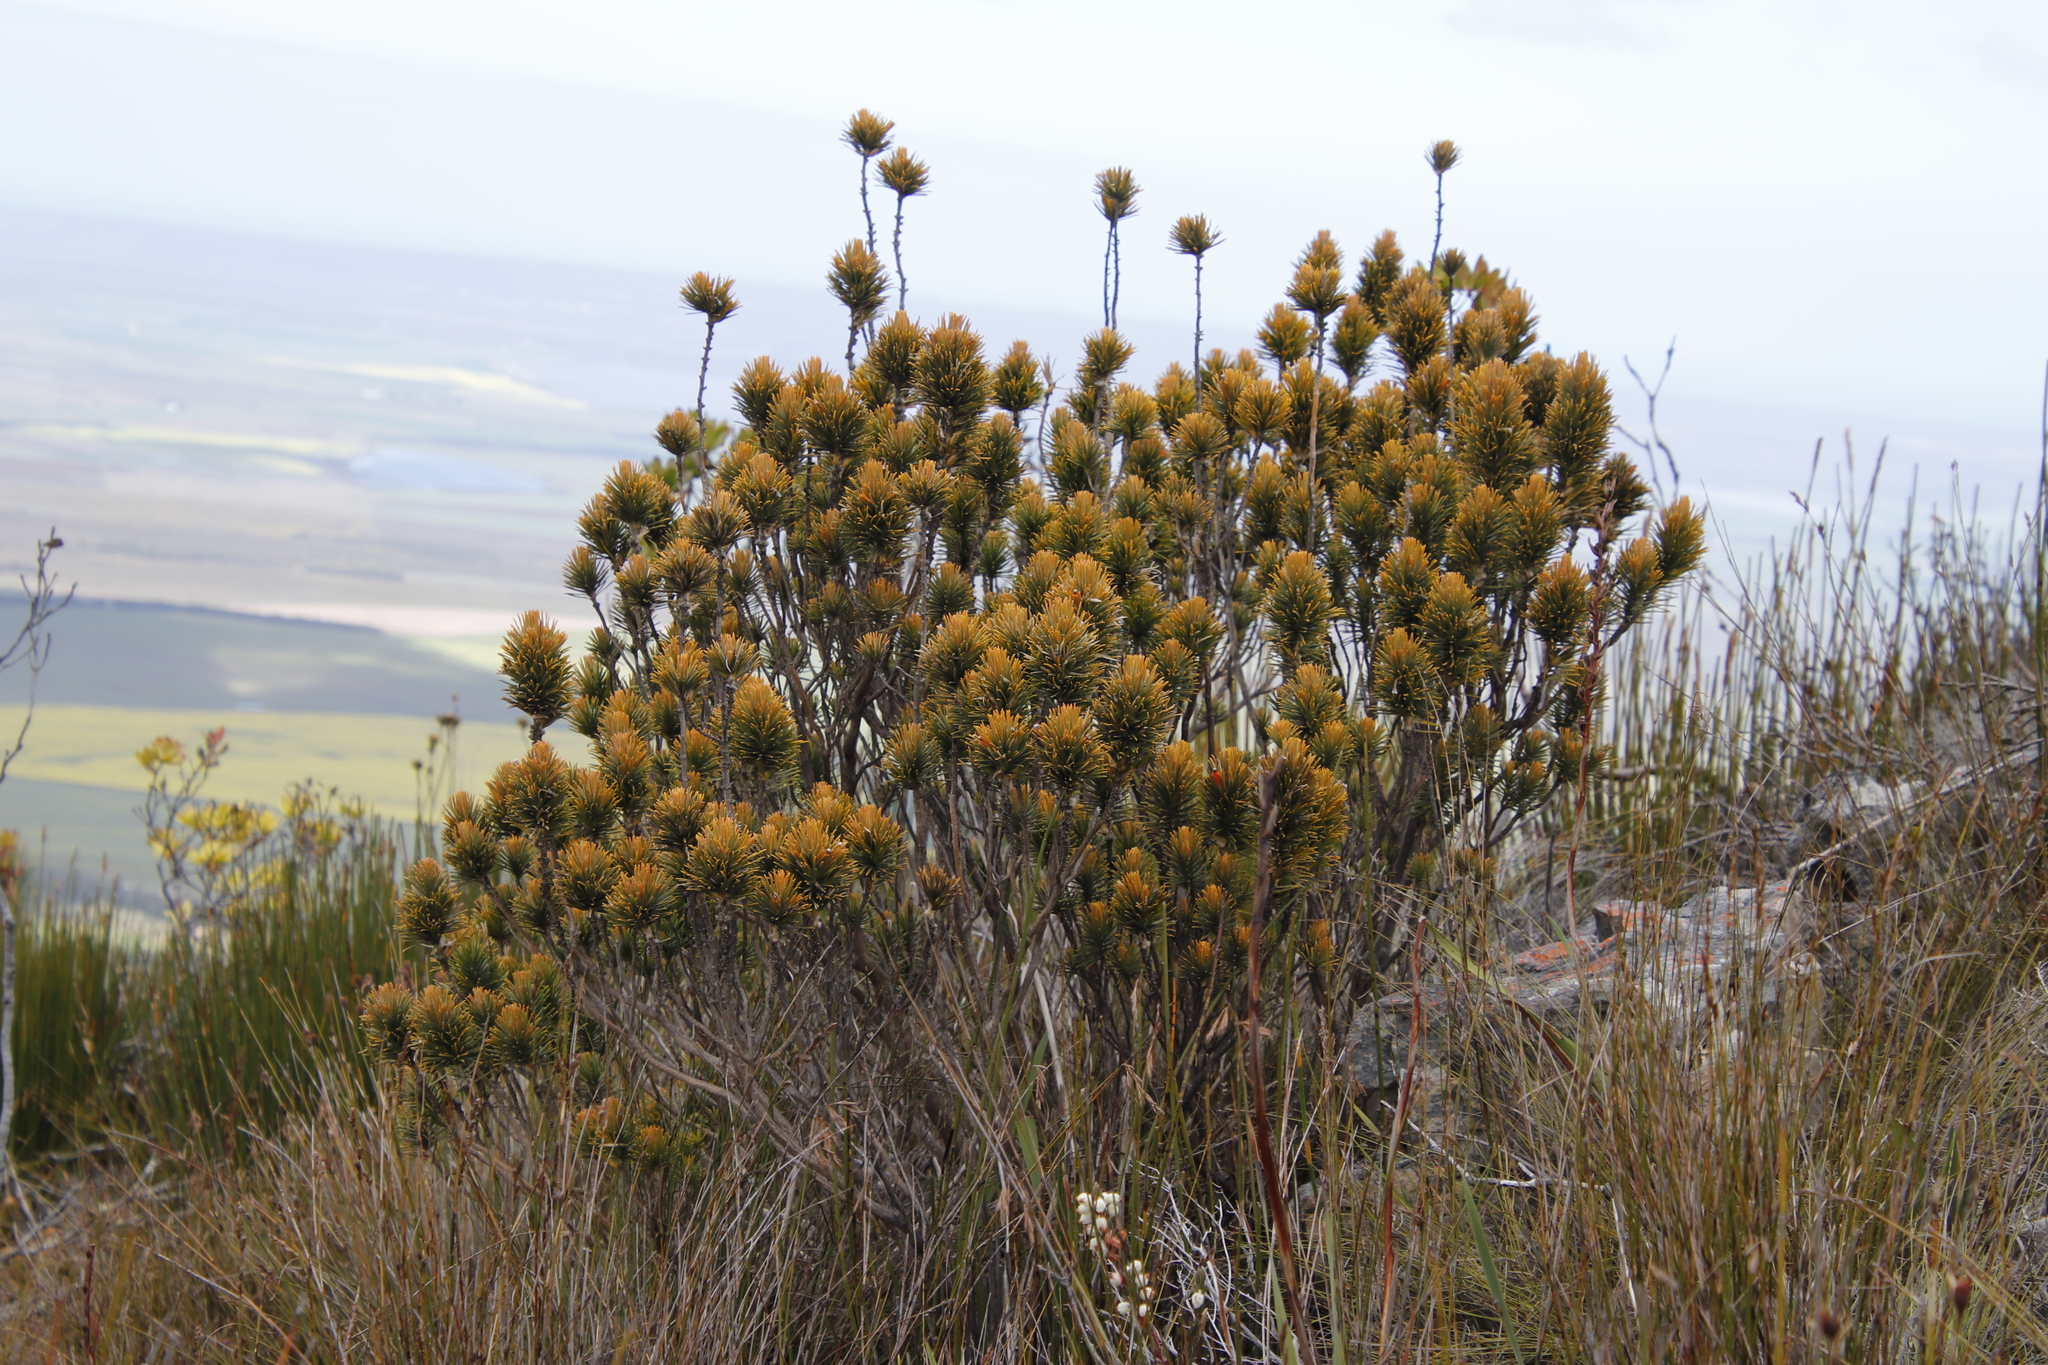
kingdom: Plantae
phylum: Tracheophyta
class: Magnoliopsida
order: Lamiales
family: Stilbaceae
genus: Retzia
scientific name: Retzia capensis
